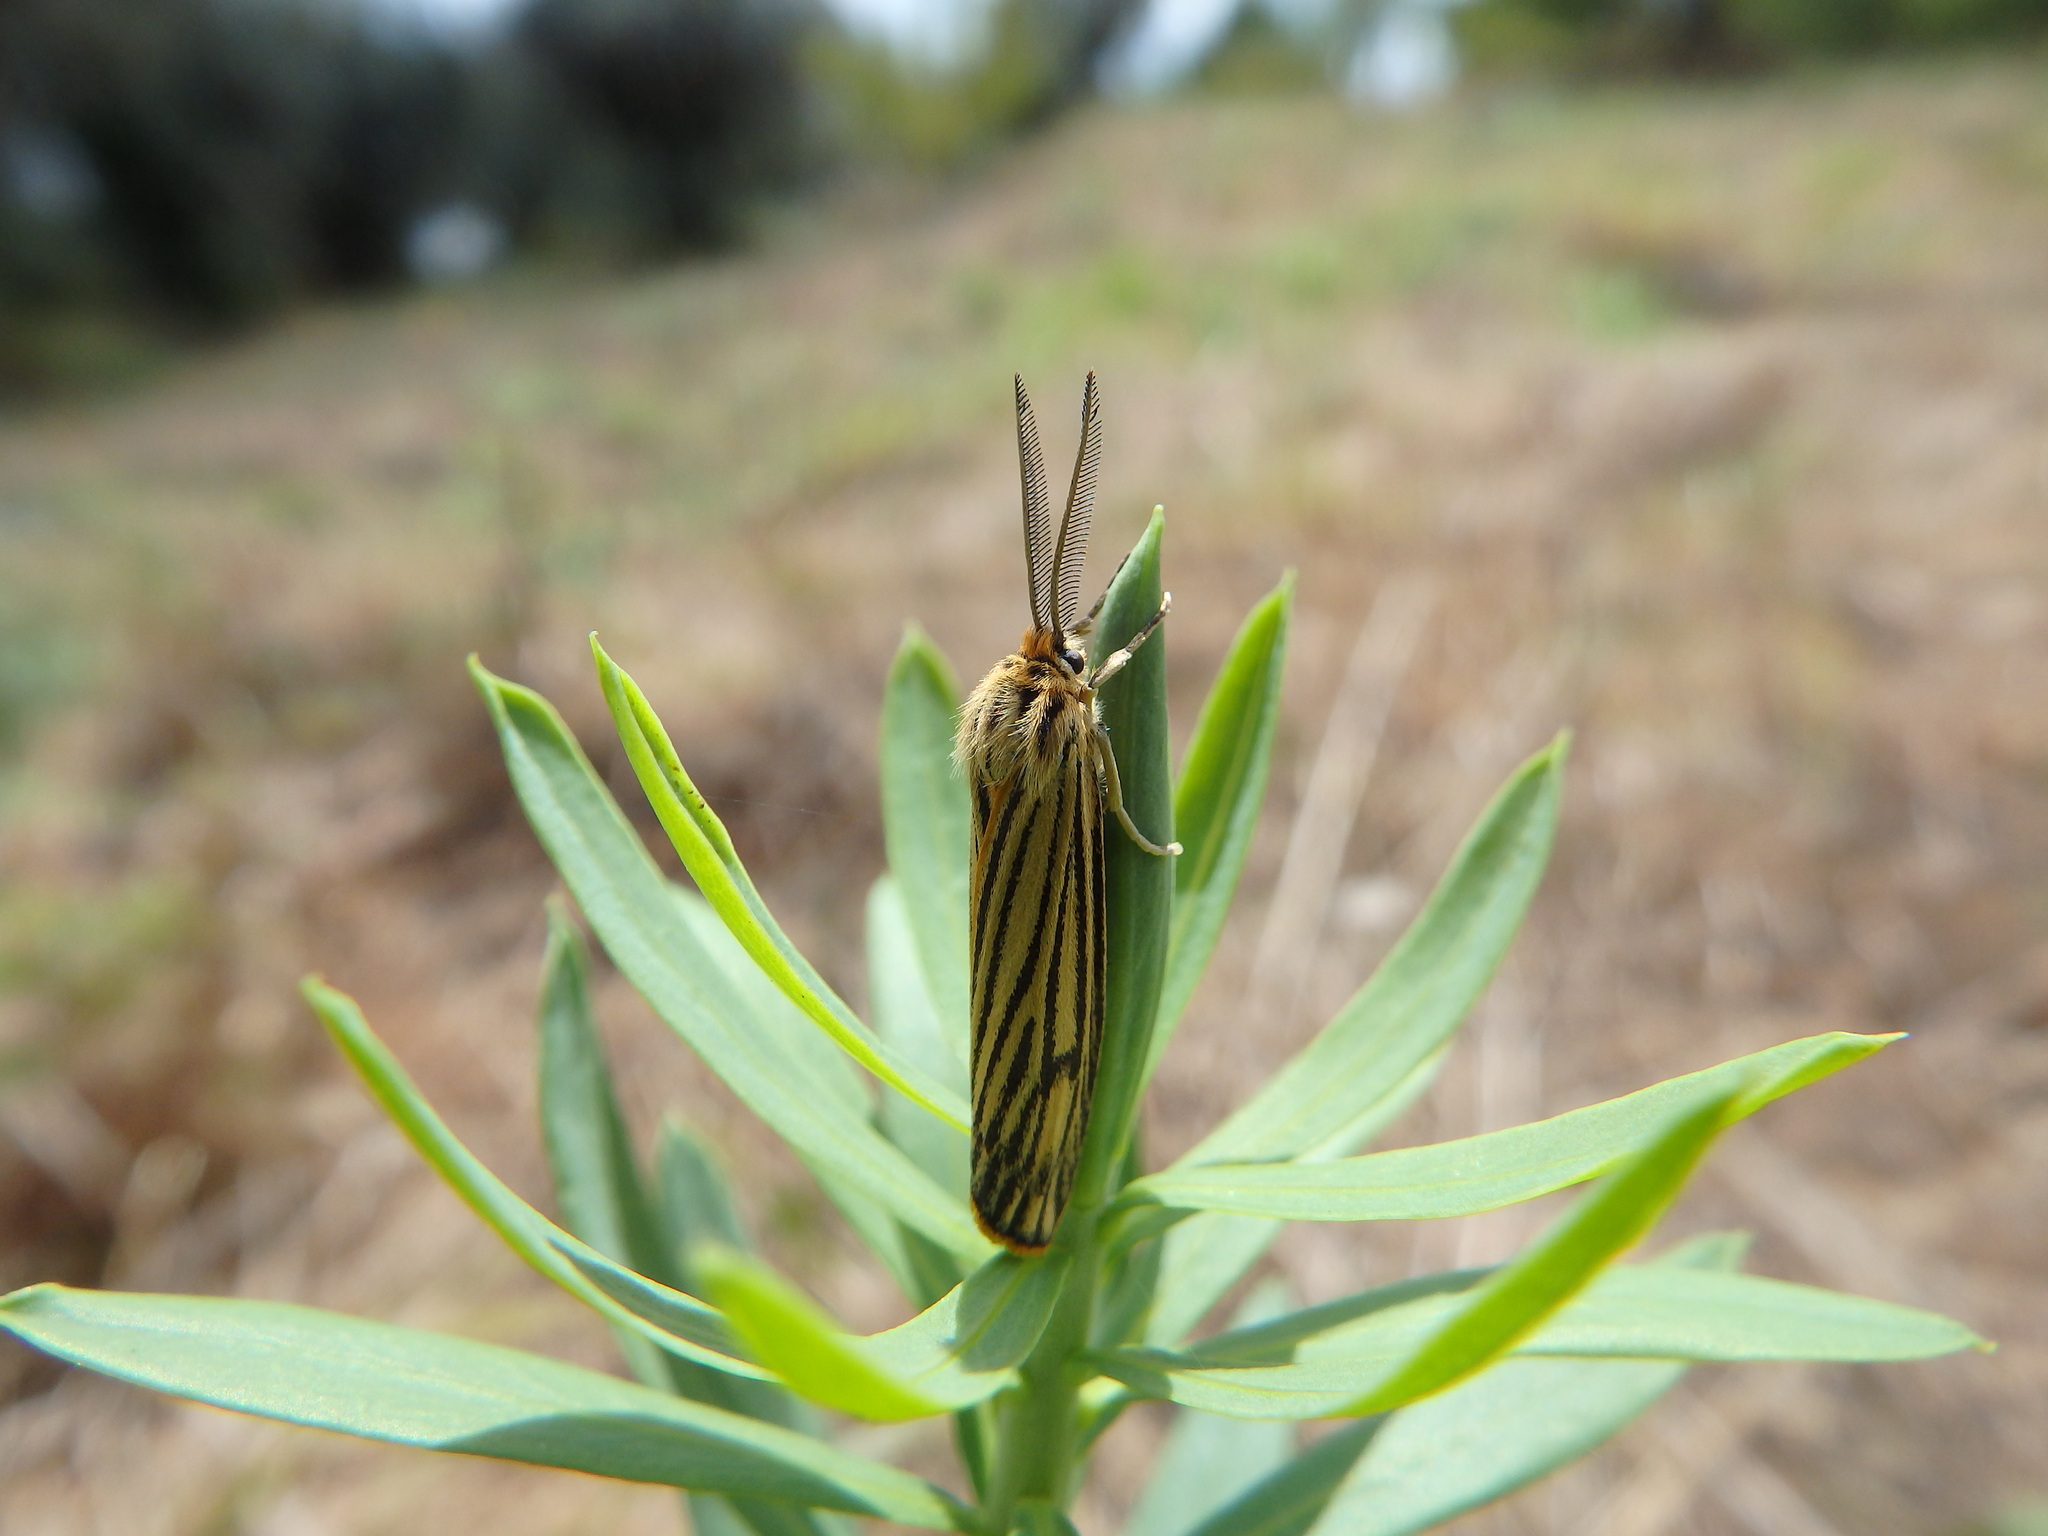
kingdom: Animalia
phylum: Arthropoda
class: Insecta
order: Lepidoptera
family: Erebidae
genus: Coscinia
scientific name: Coscinia Spiris striata
